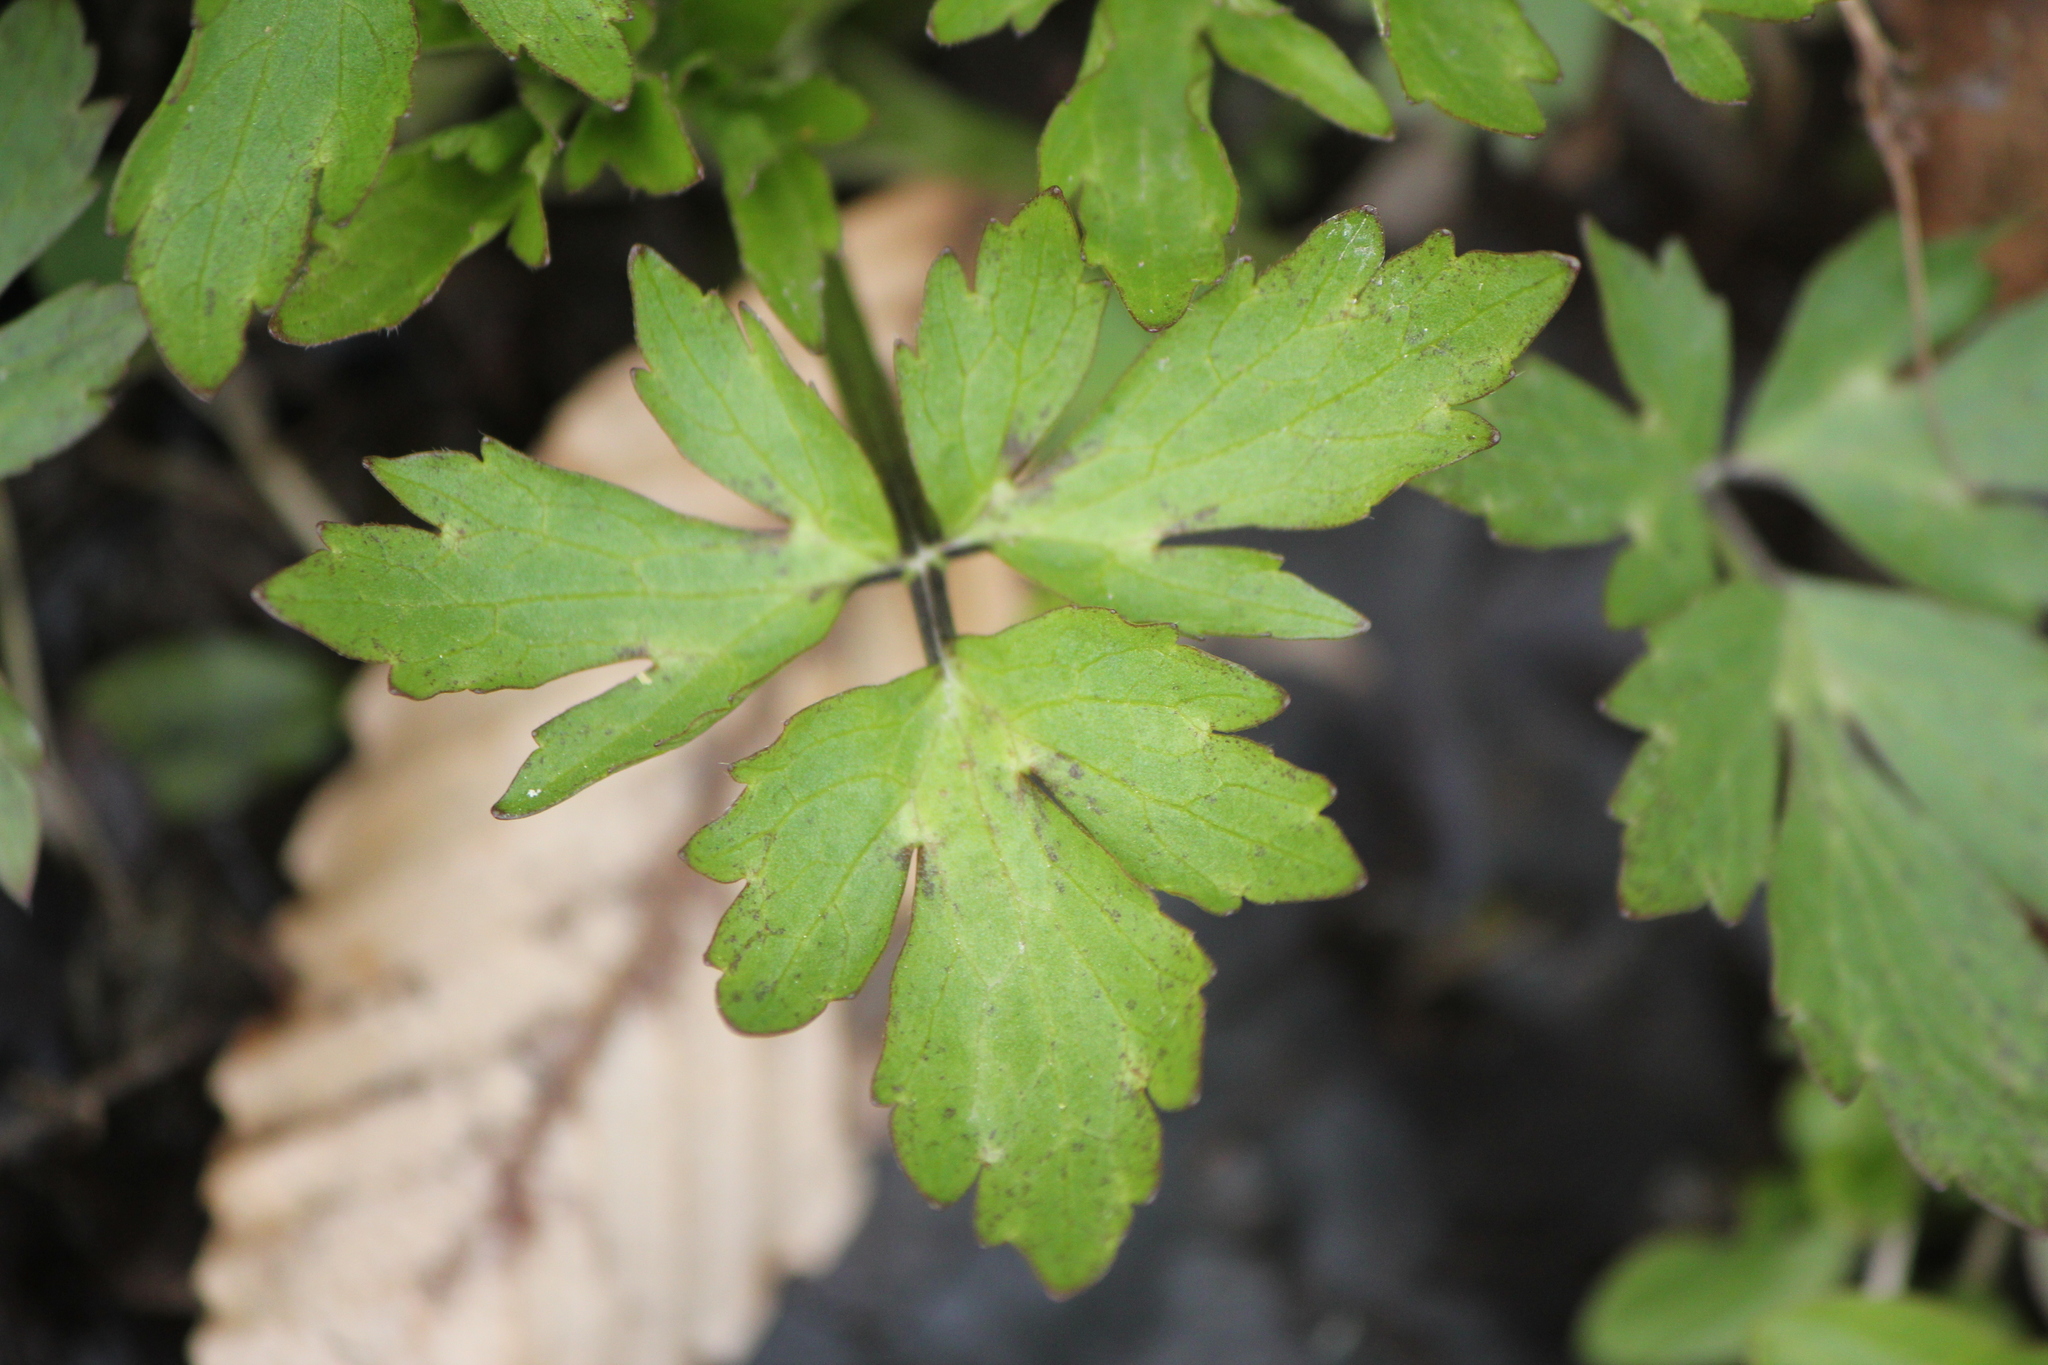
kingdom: Plantae
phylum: Tracheophyta
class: Magnoliopsida
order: Ranunculales
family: Ranunculaceae
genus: Ranunculus
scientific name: Ranunculus hispidus
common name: Bristly buttercup
